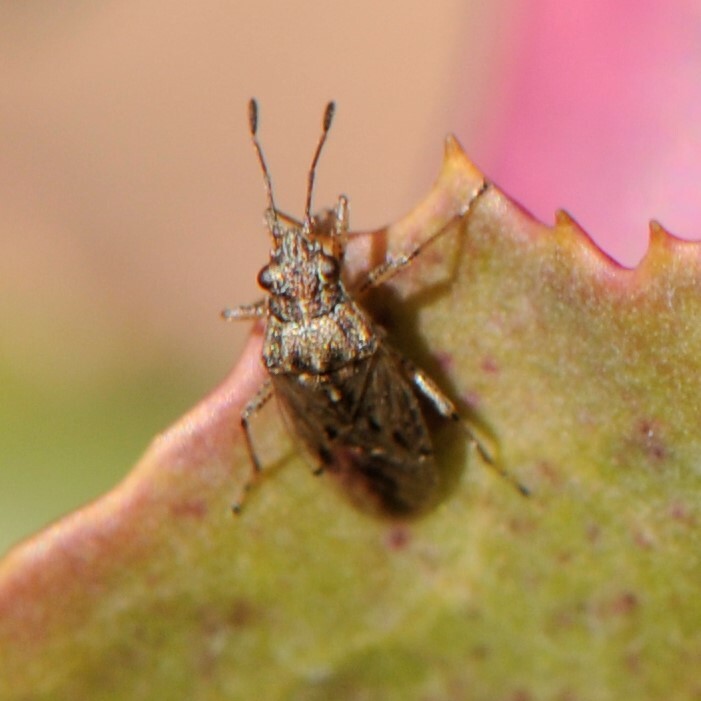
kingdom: Animalia
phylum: Arthropoda
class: Insecta
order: Hemiptera
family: Lygaeidae
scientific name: Lygaeidae
